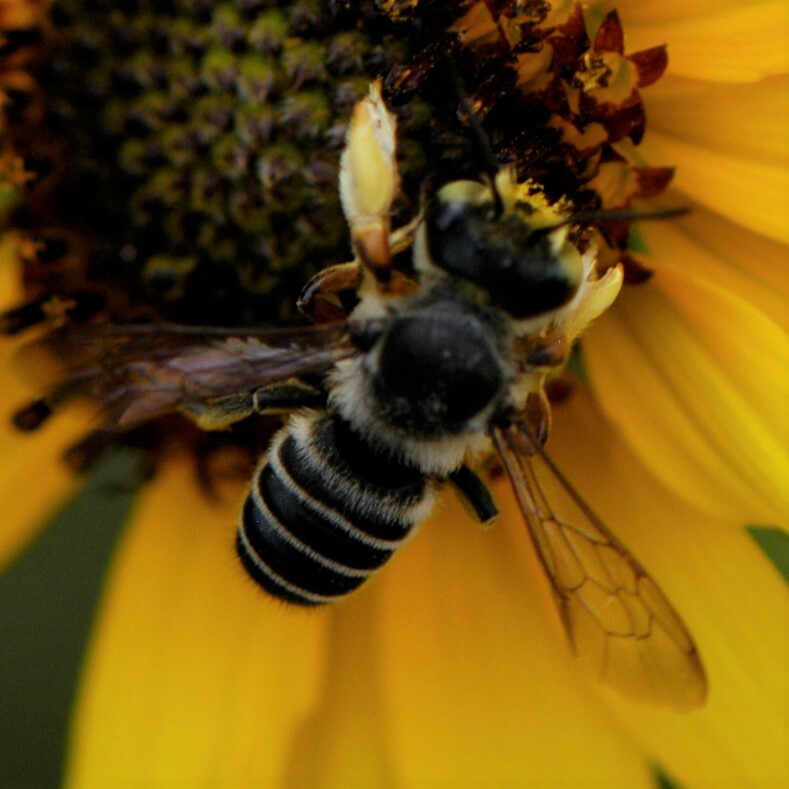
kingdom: Animalia
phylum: Arthropoda
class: Insecta
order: Hymenoptera
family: Megachilidae
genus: Megachile
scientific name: Megachile policaris
